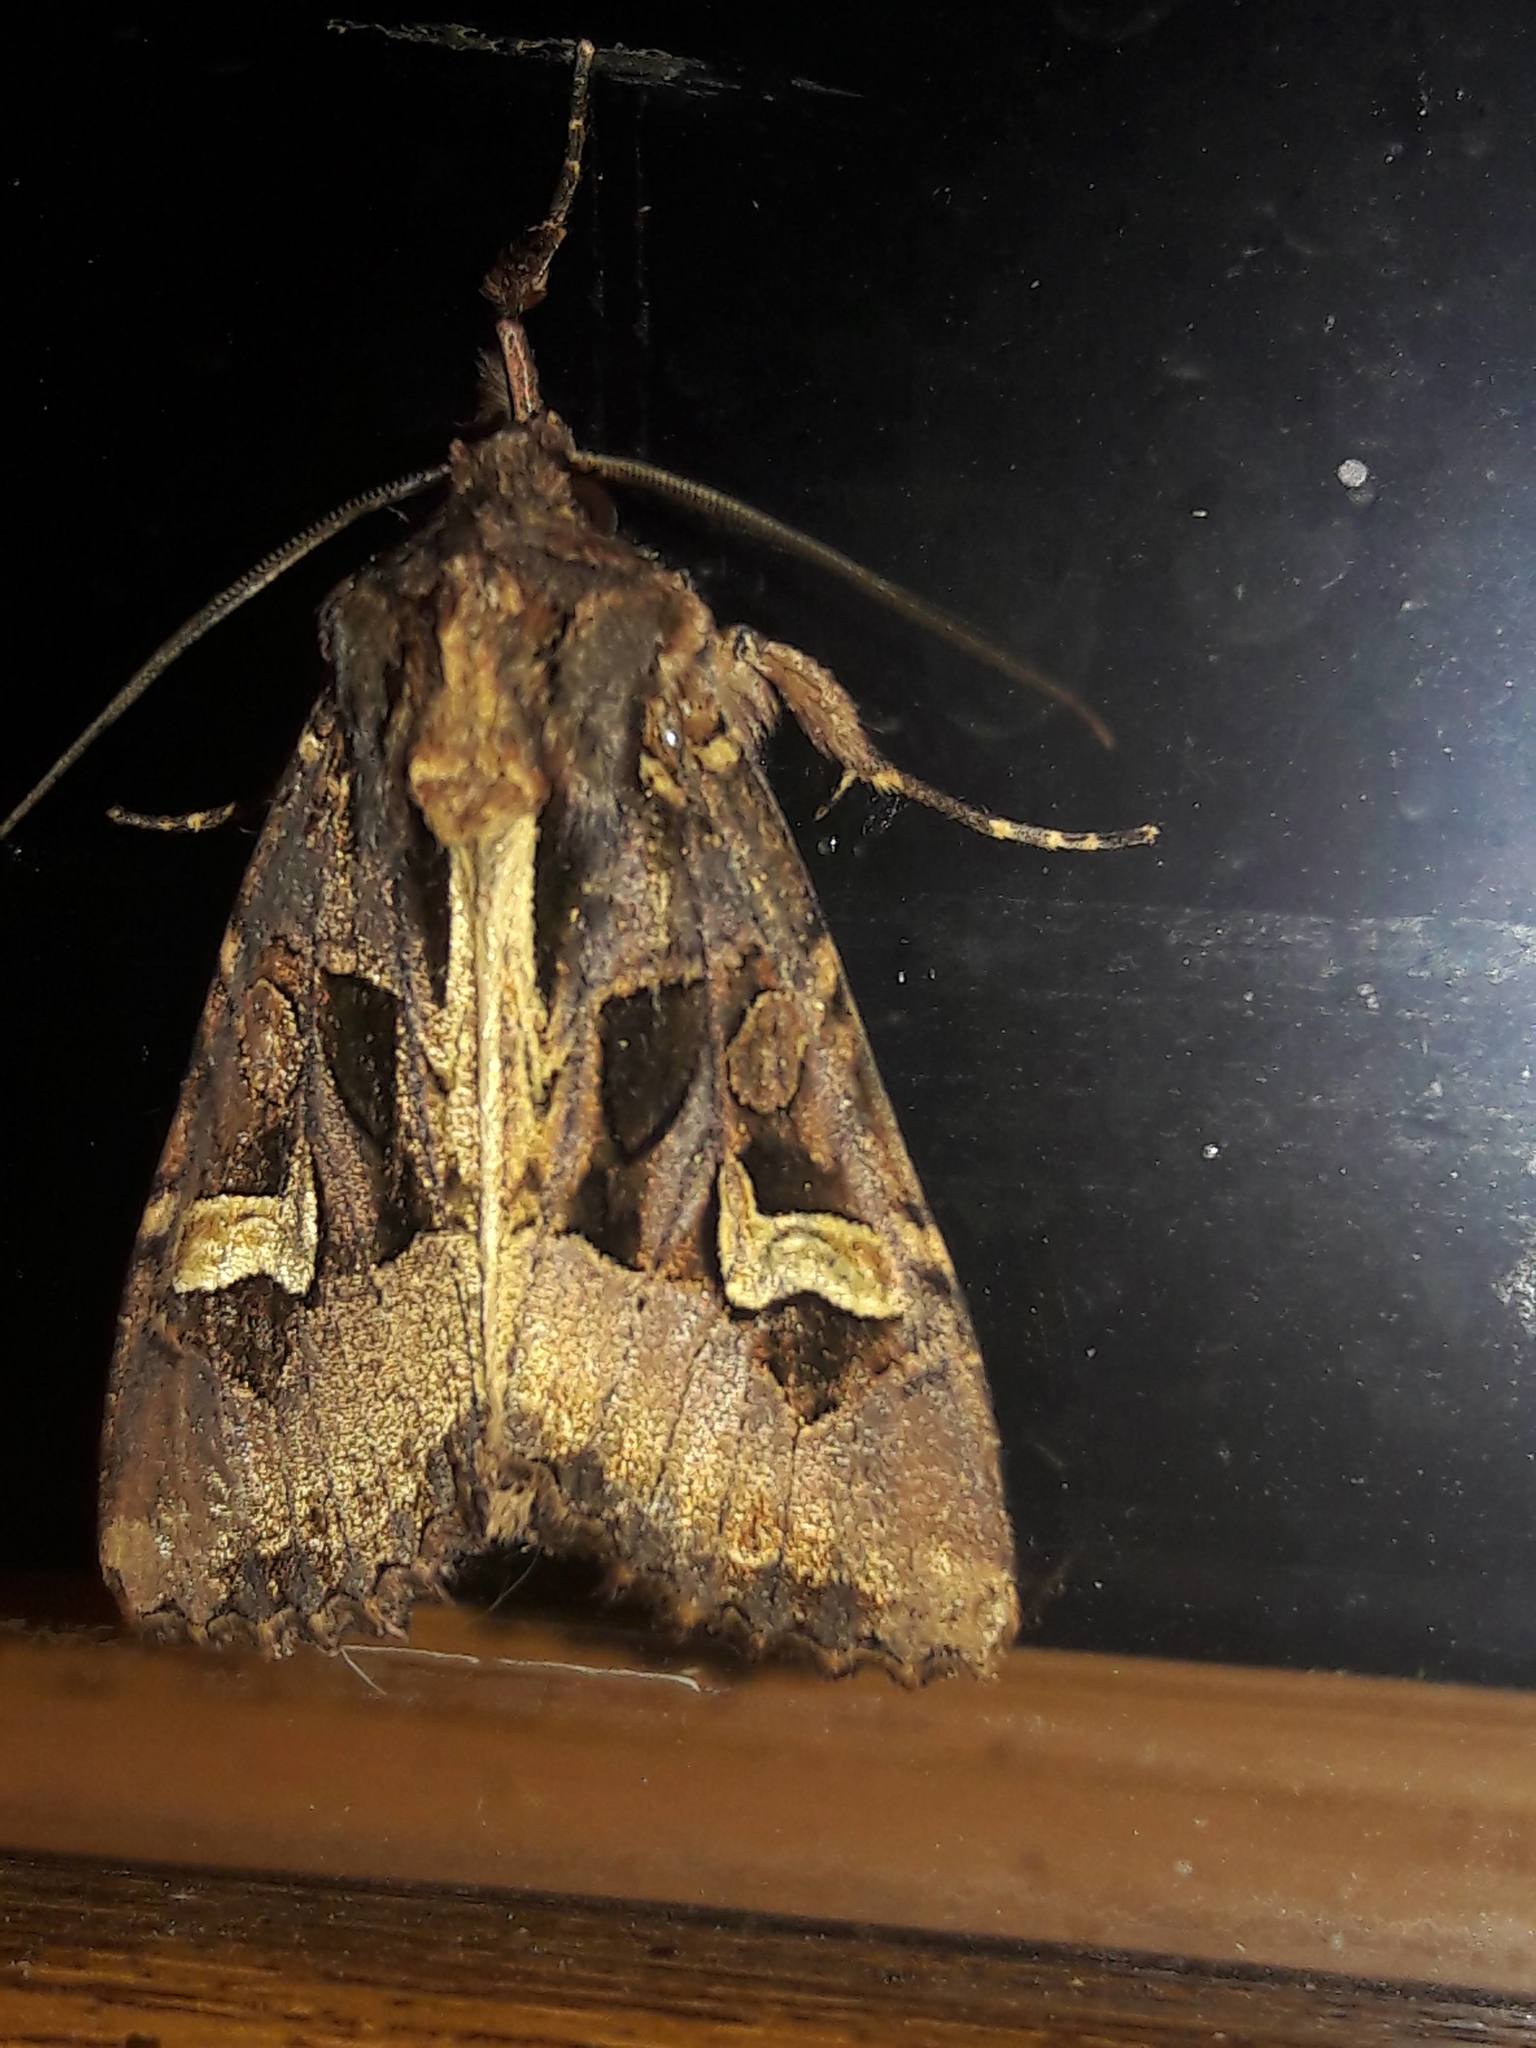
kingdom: Animalia
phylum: Arthropoda
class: Insecta
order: Lepidoptera
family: Noctuidae
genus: Trigonophora
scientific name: Trigonophora flammea
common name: Flame brocade
